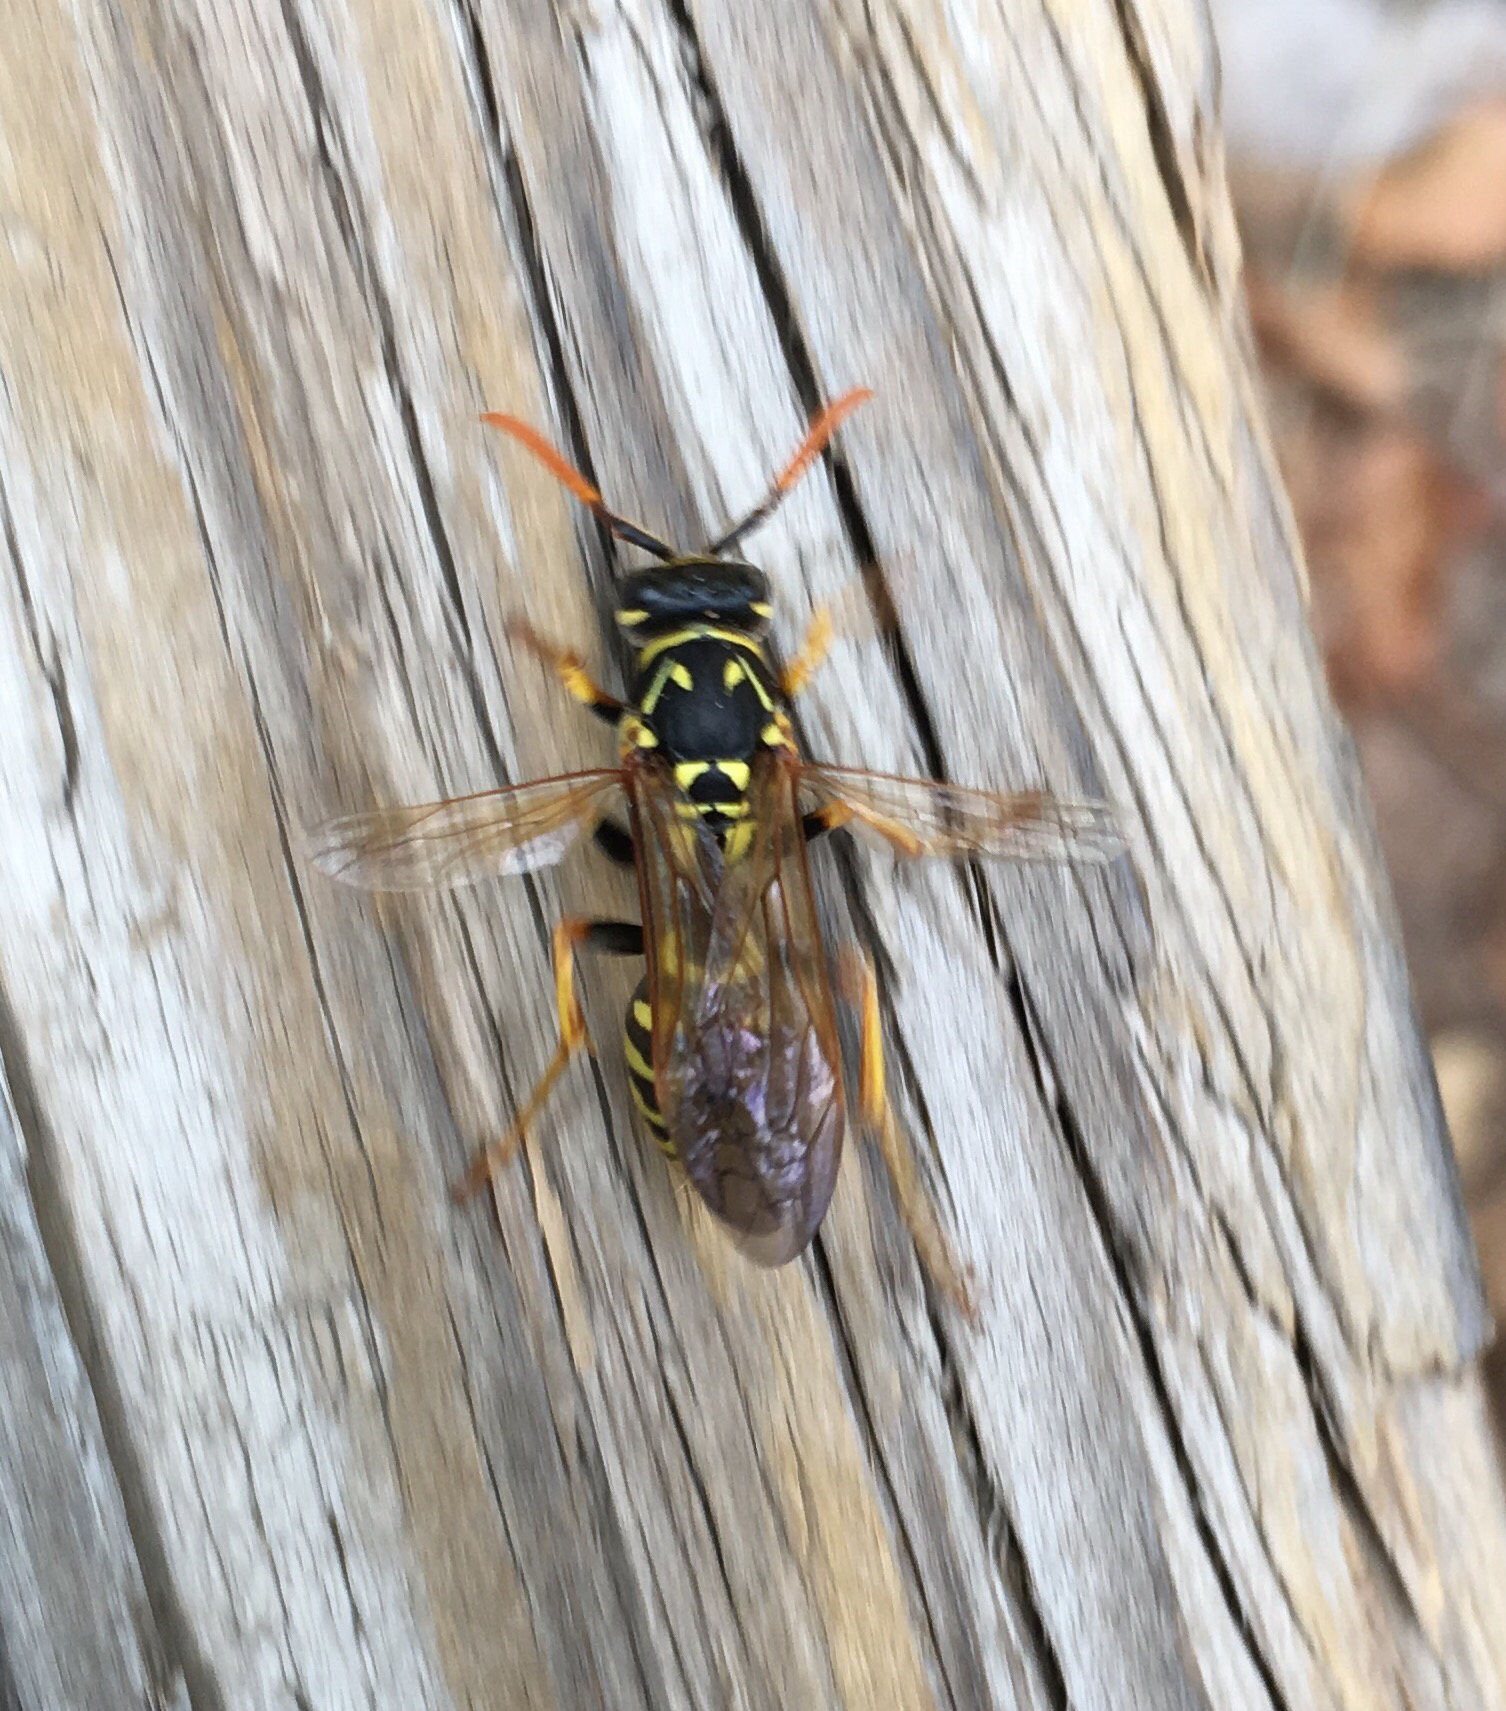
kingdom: Animalia
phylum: Arthropoda
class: Insecta
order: Hymenoptera
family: Eumenidae
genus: Polistes
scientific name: Polistes dominula
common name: Paper wasp
